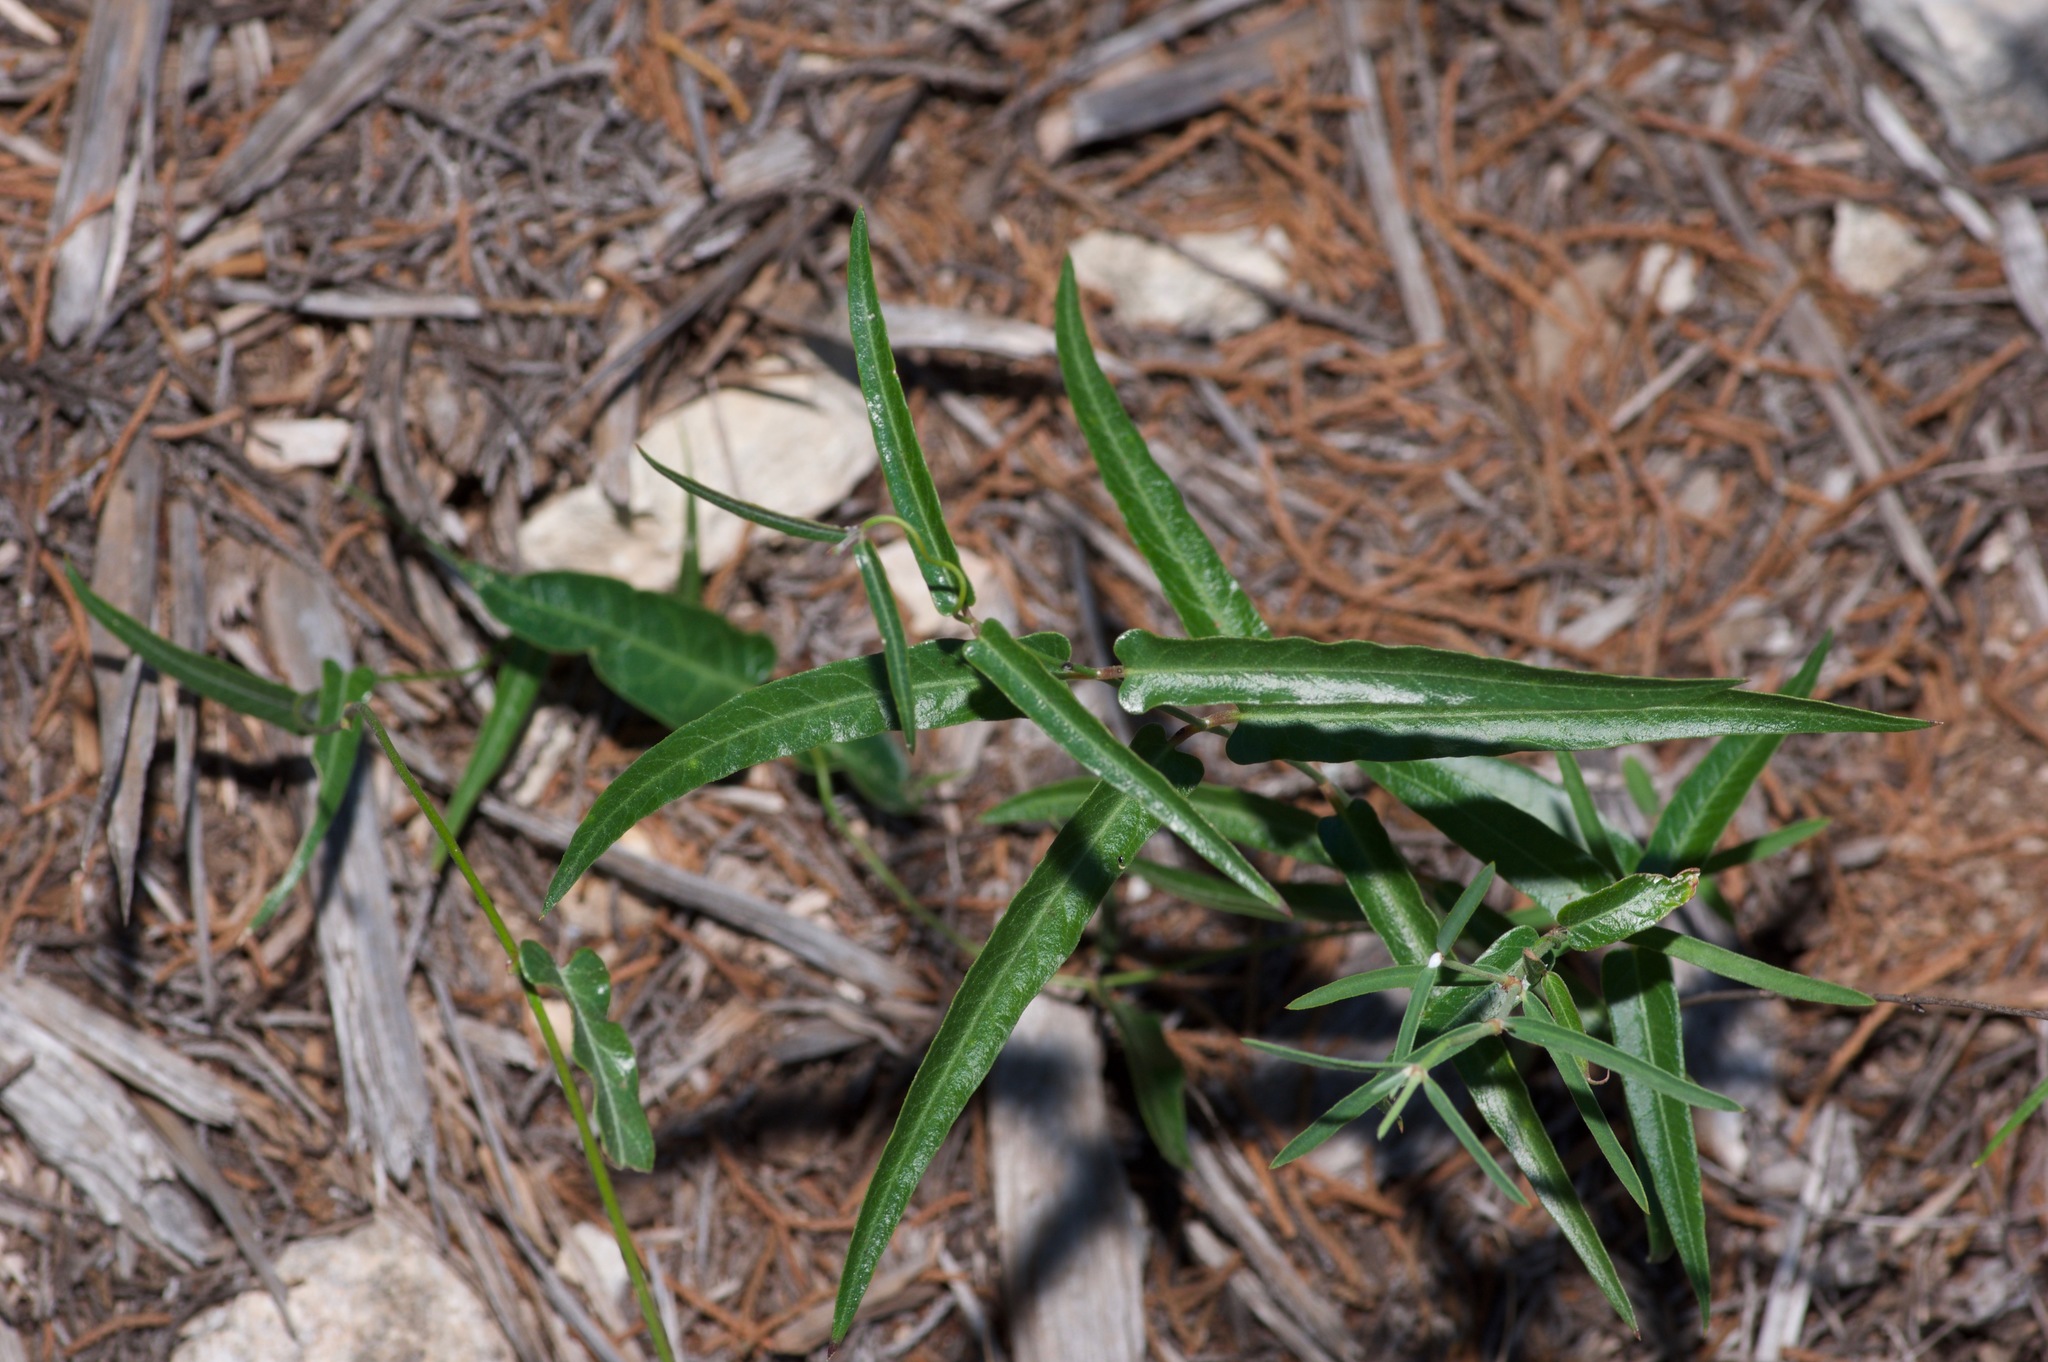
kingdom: Plantae
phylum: Tracheophyta
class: Magnoliopsida
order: Gentianales
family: Apocynaceae
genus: Funastrum
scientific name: Funastrum crispum
